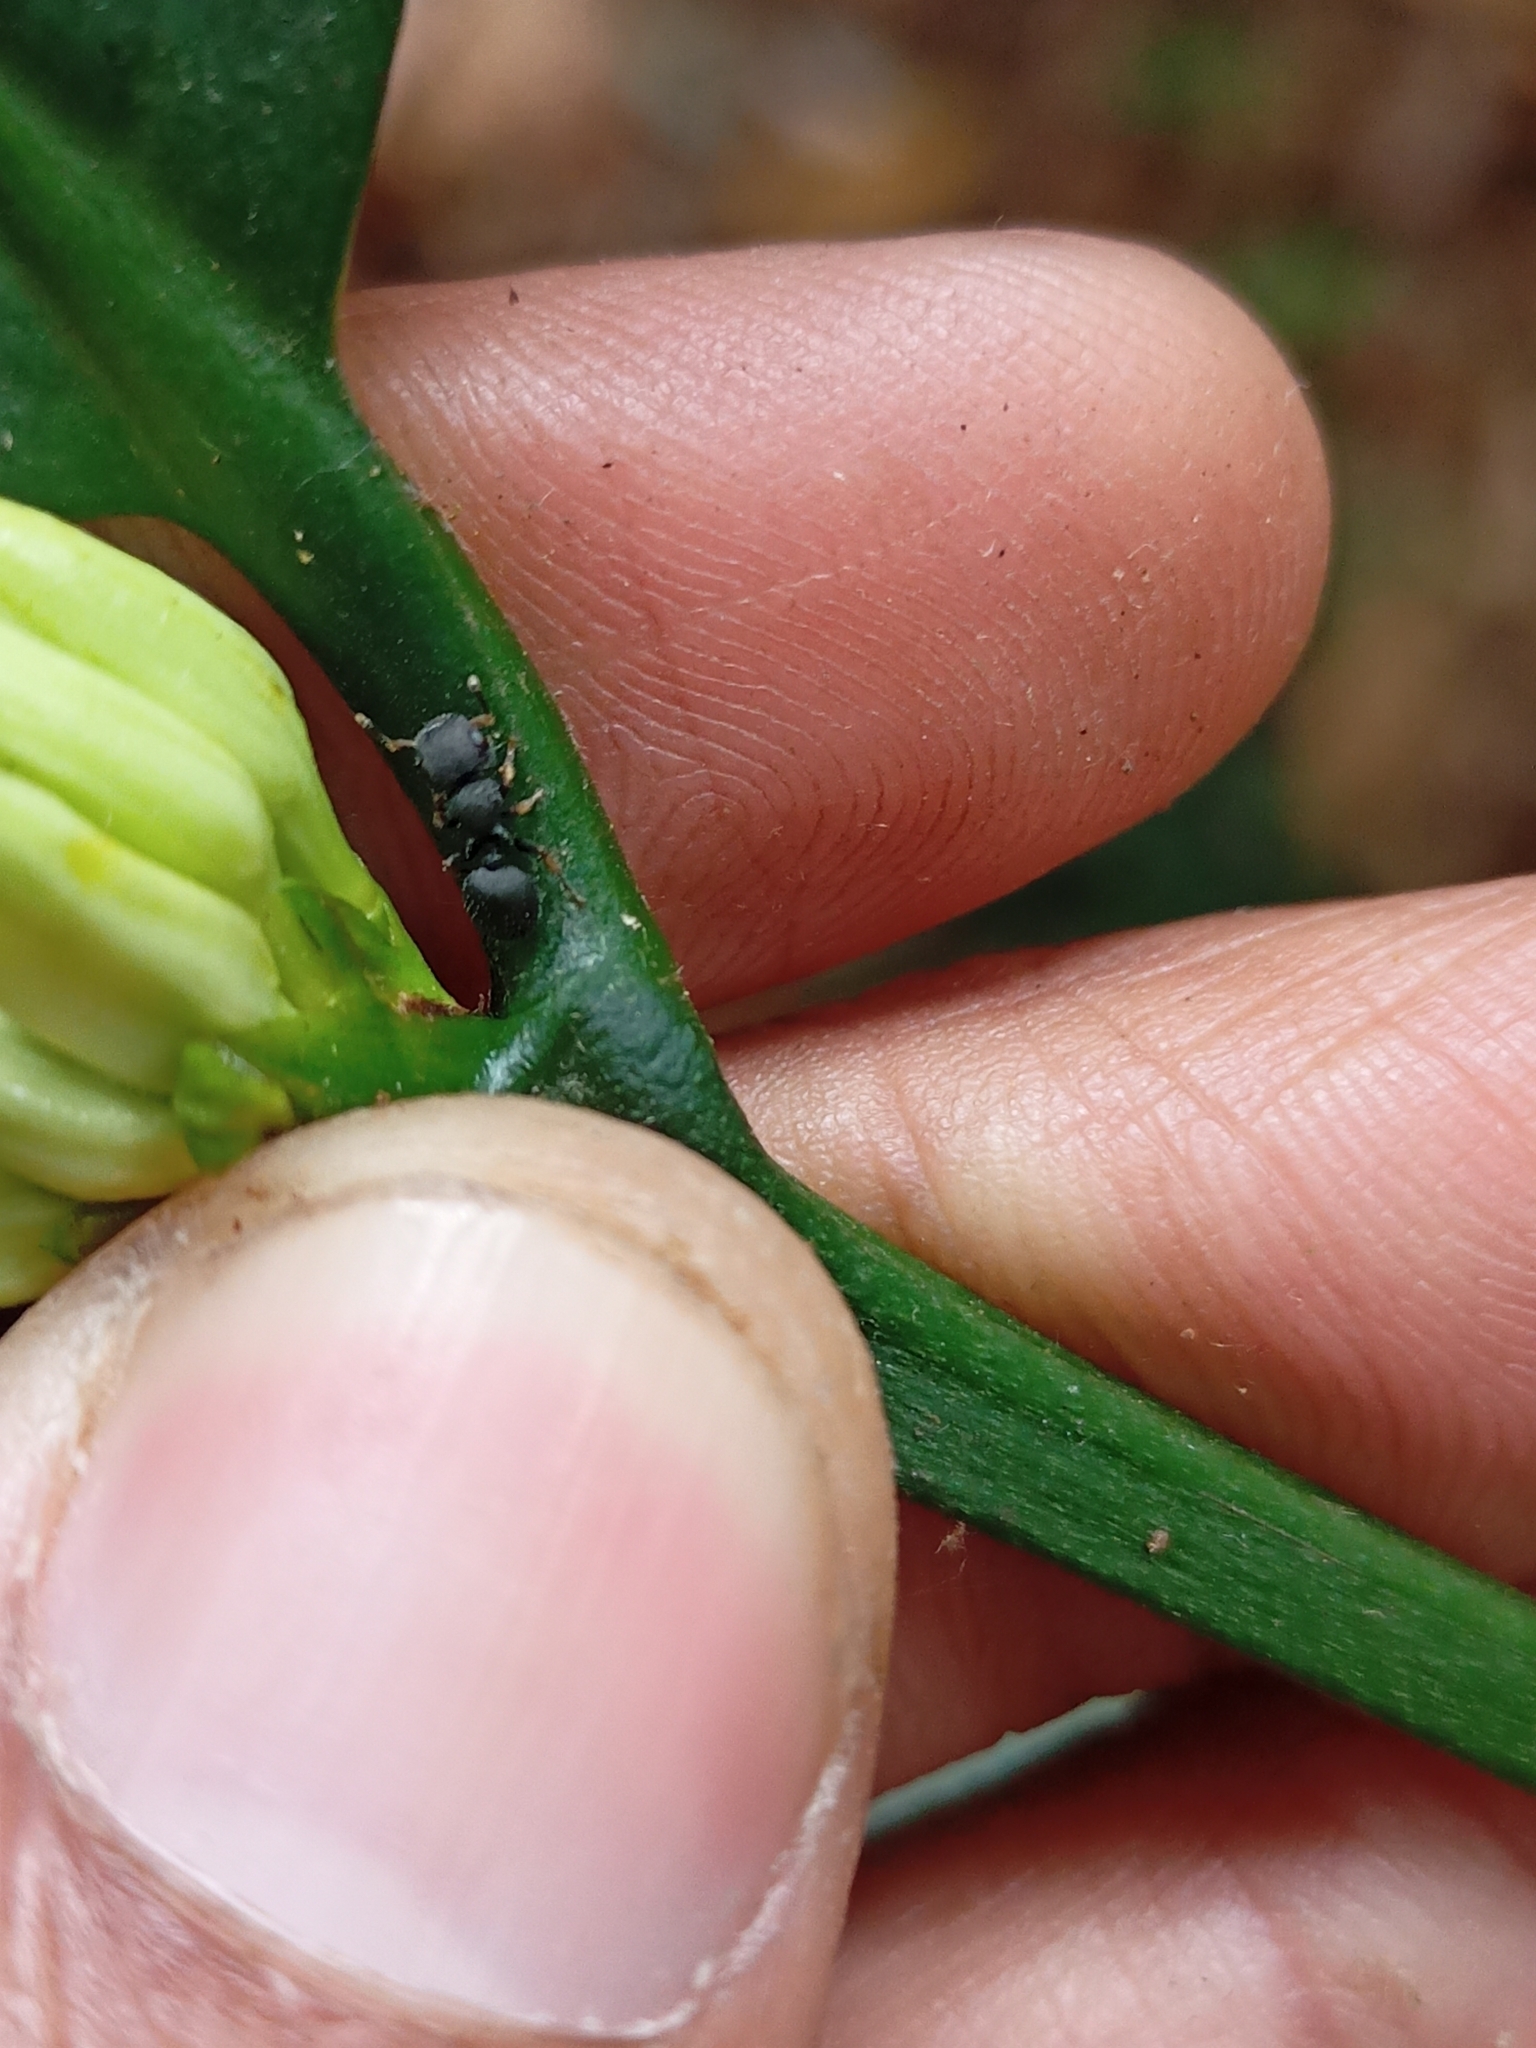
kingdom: Animalia
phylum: Arthropoda
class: Insecta
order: Hymenoptera
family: Formicidae
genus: Cataulacus
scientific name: Cataulacus taprobanae
